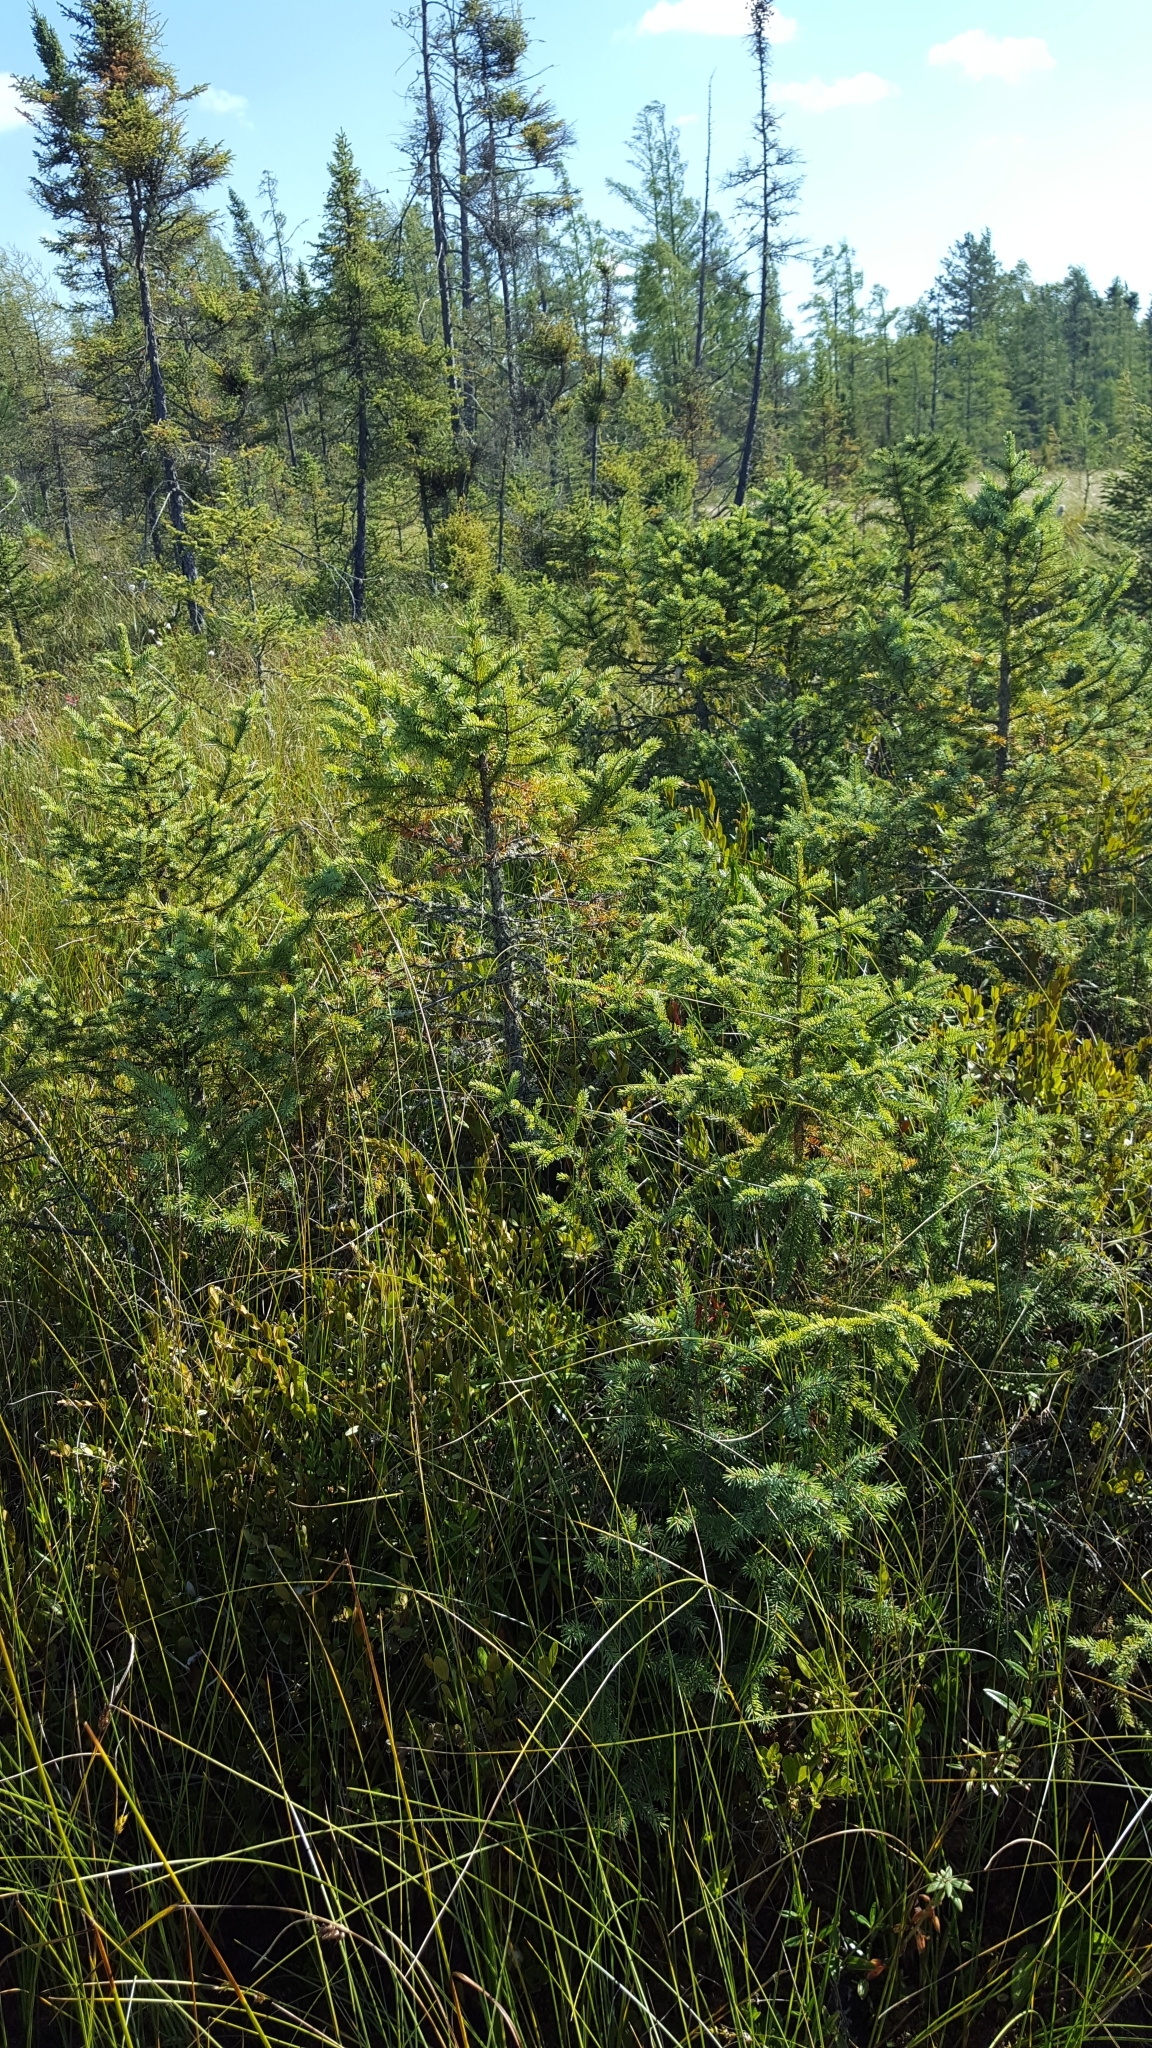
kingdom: Plantae
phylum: Tracheophyta
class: Pinopsida
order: Pinales
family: Pinaceae
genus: Picea
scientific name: Picea mariana
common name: Black spruce
